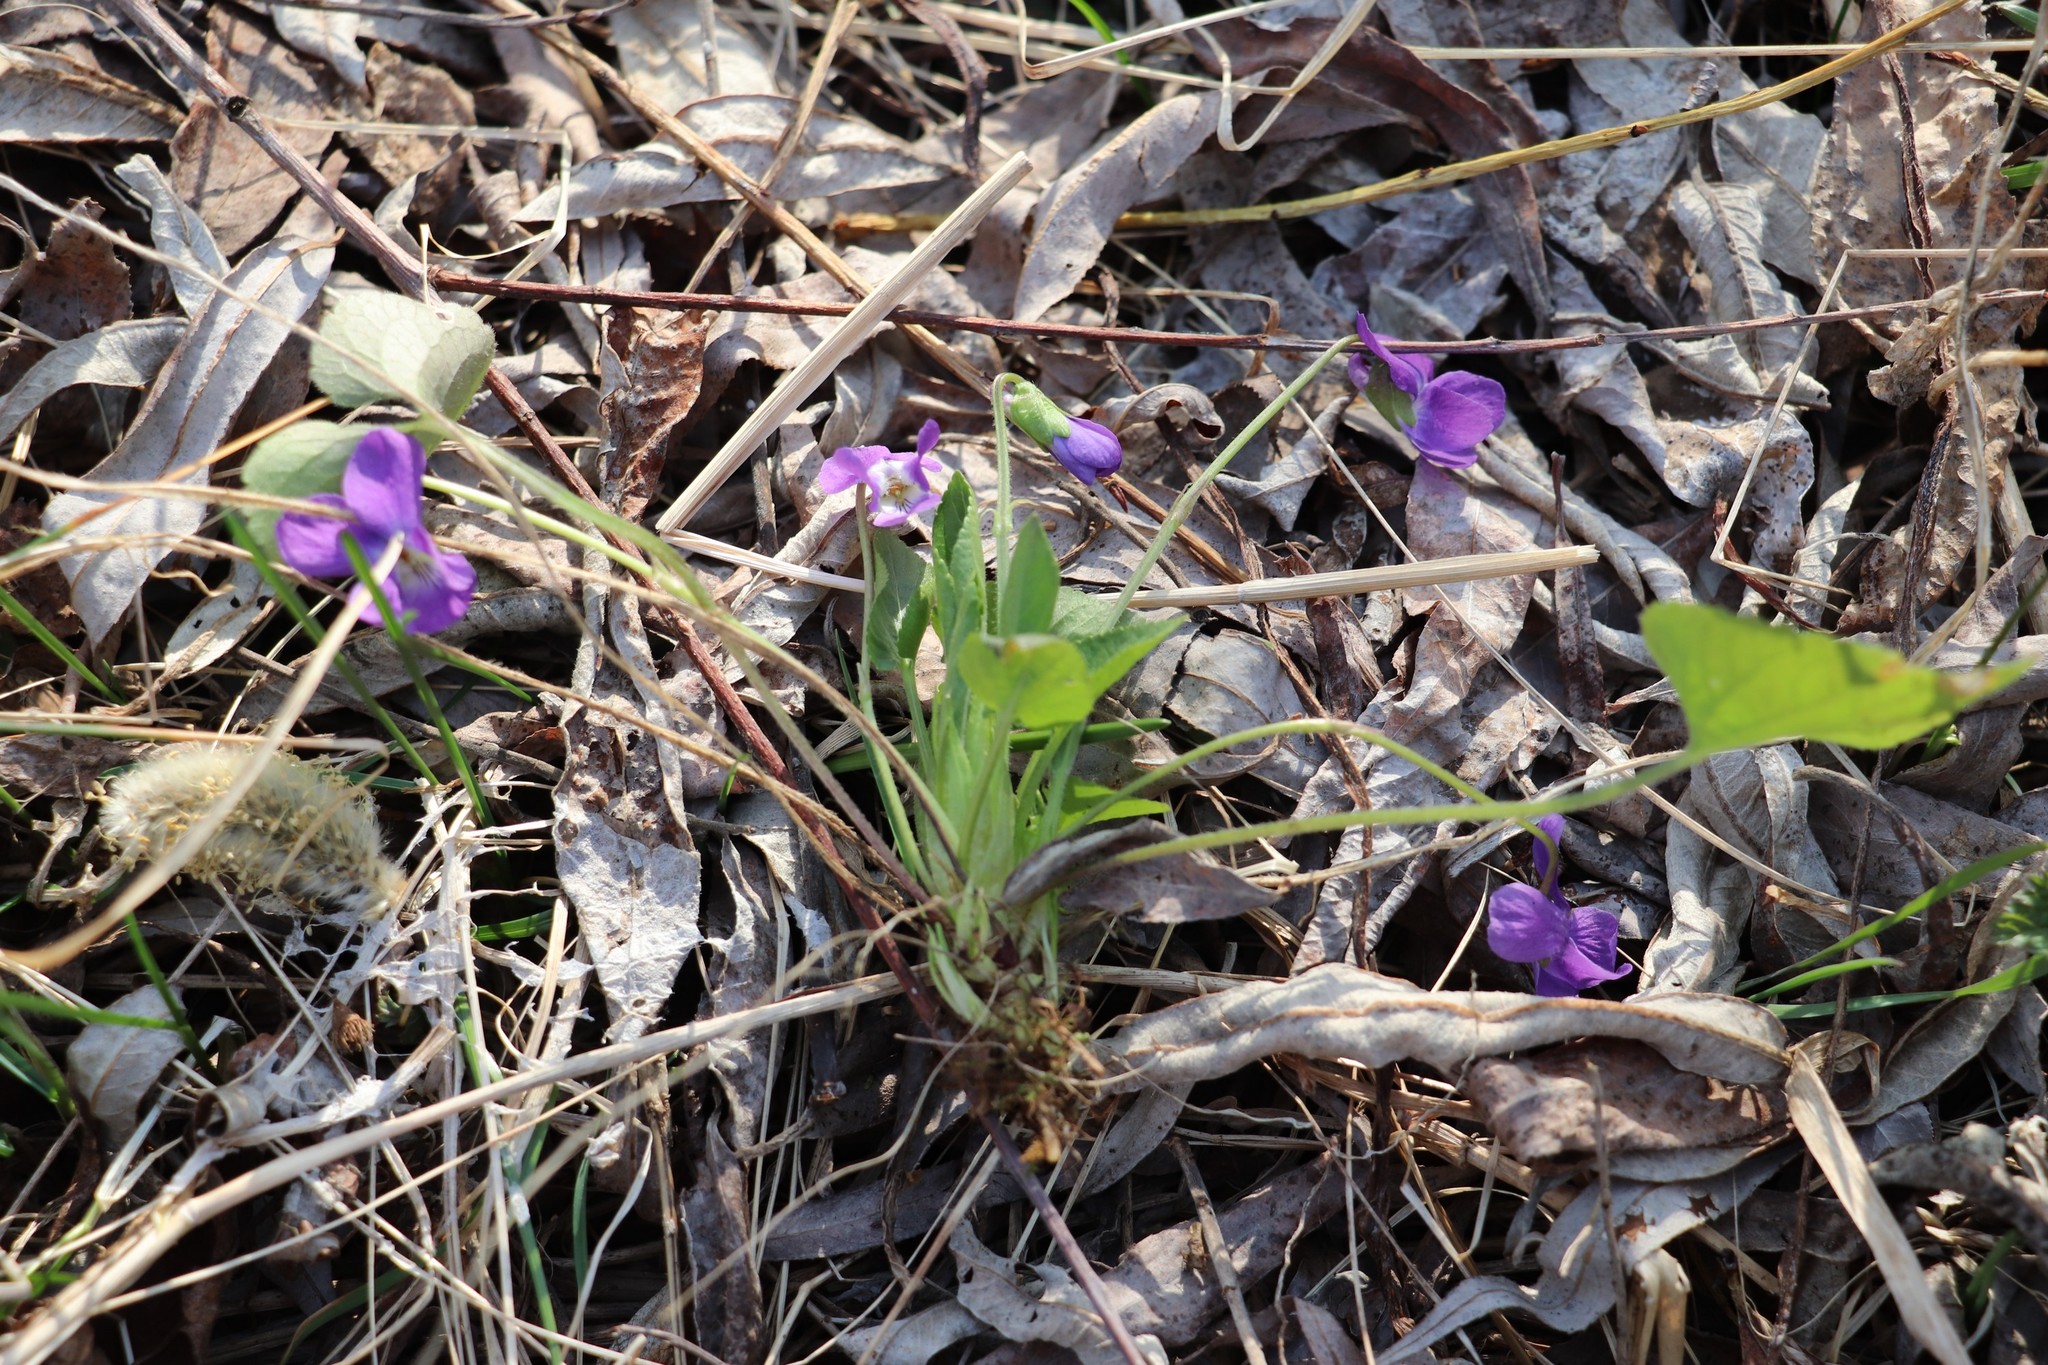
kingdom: Plantae
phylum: Tracheophyta
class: Magnoliopsida
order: Malpighiales
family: Violaceae
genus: Viola
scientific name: Viola hirta
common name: Hairy violet
